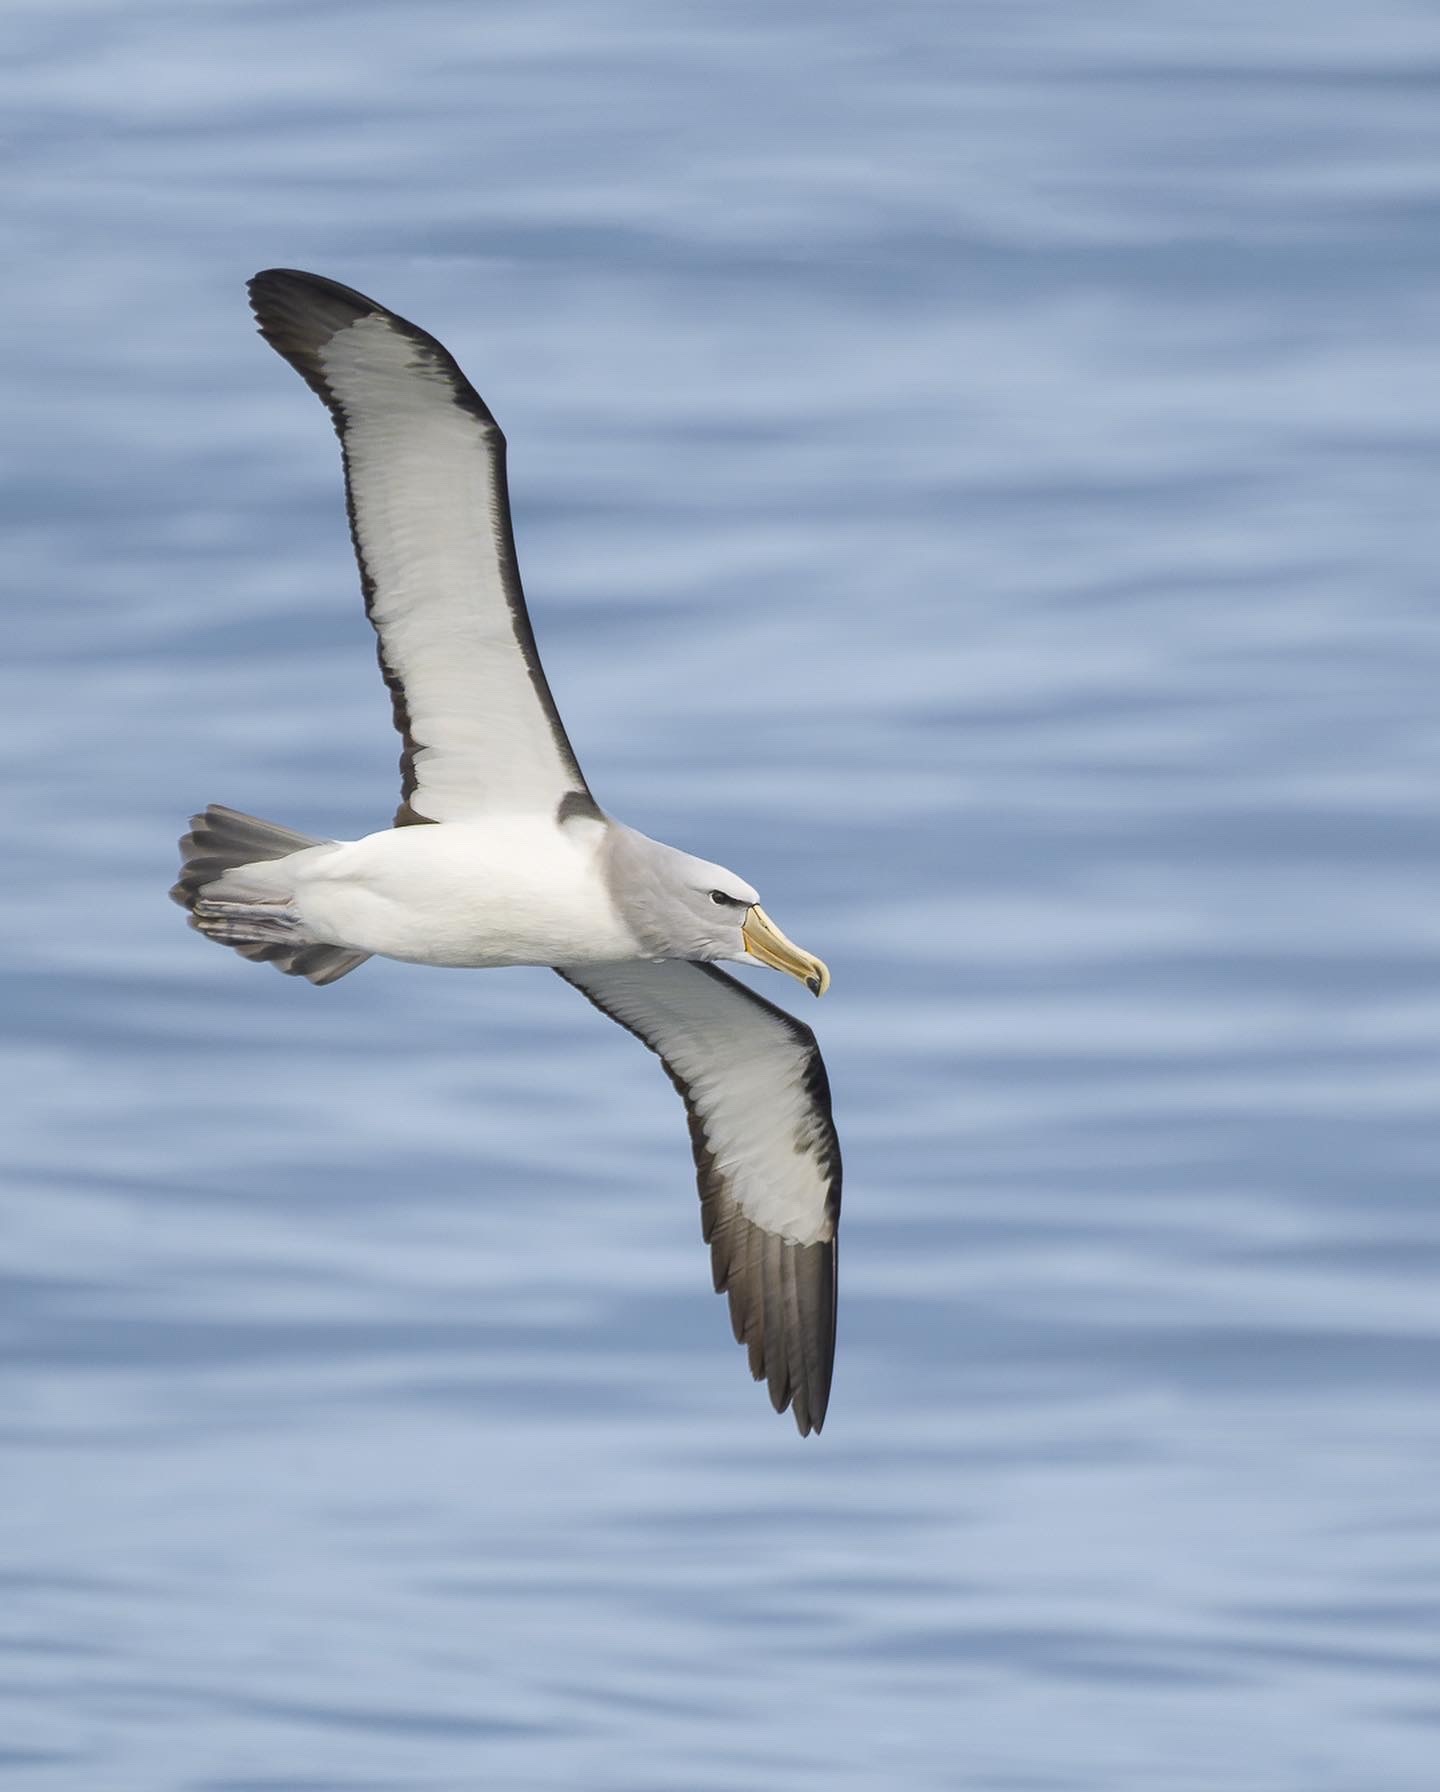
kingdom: Animalia
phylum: Chordata
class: Aves
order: Procellariiformes
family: Diomedeidae
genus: Thalassarche
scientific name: Thalassarche salvini
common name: Salvin's albatross
